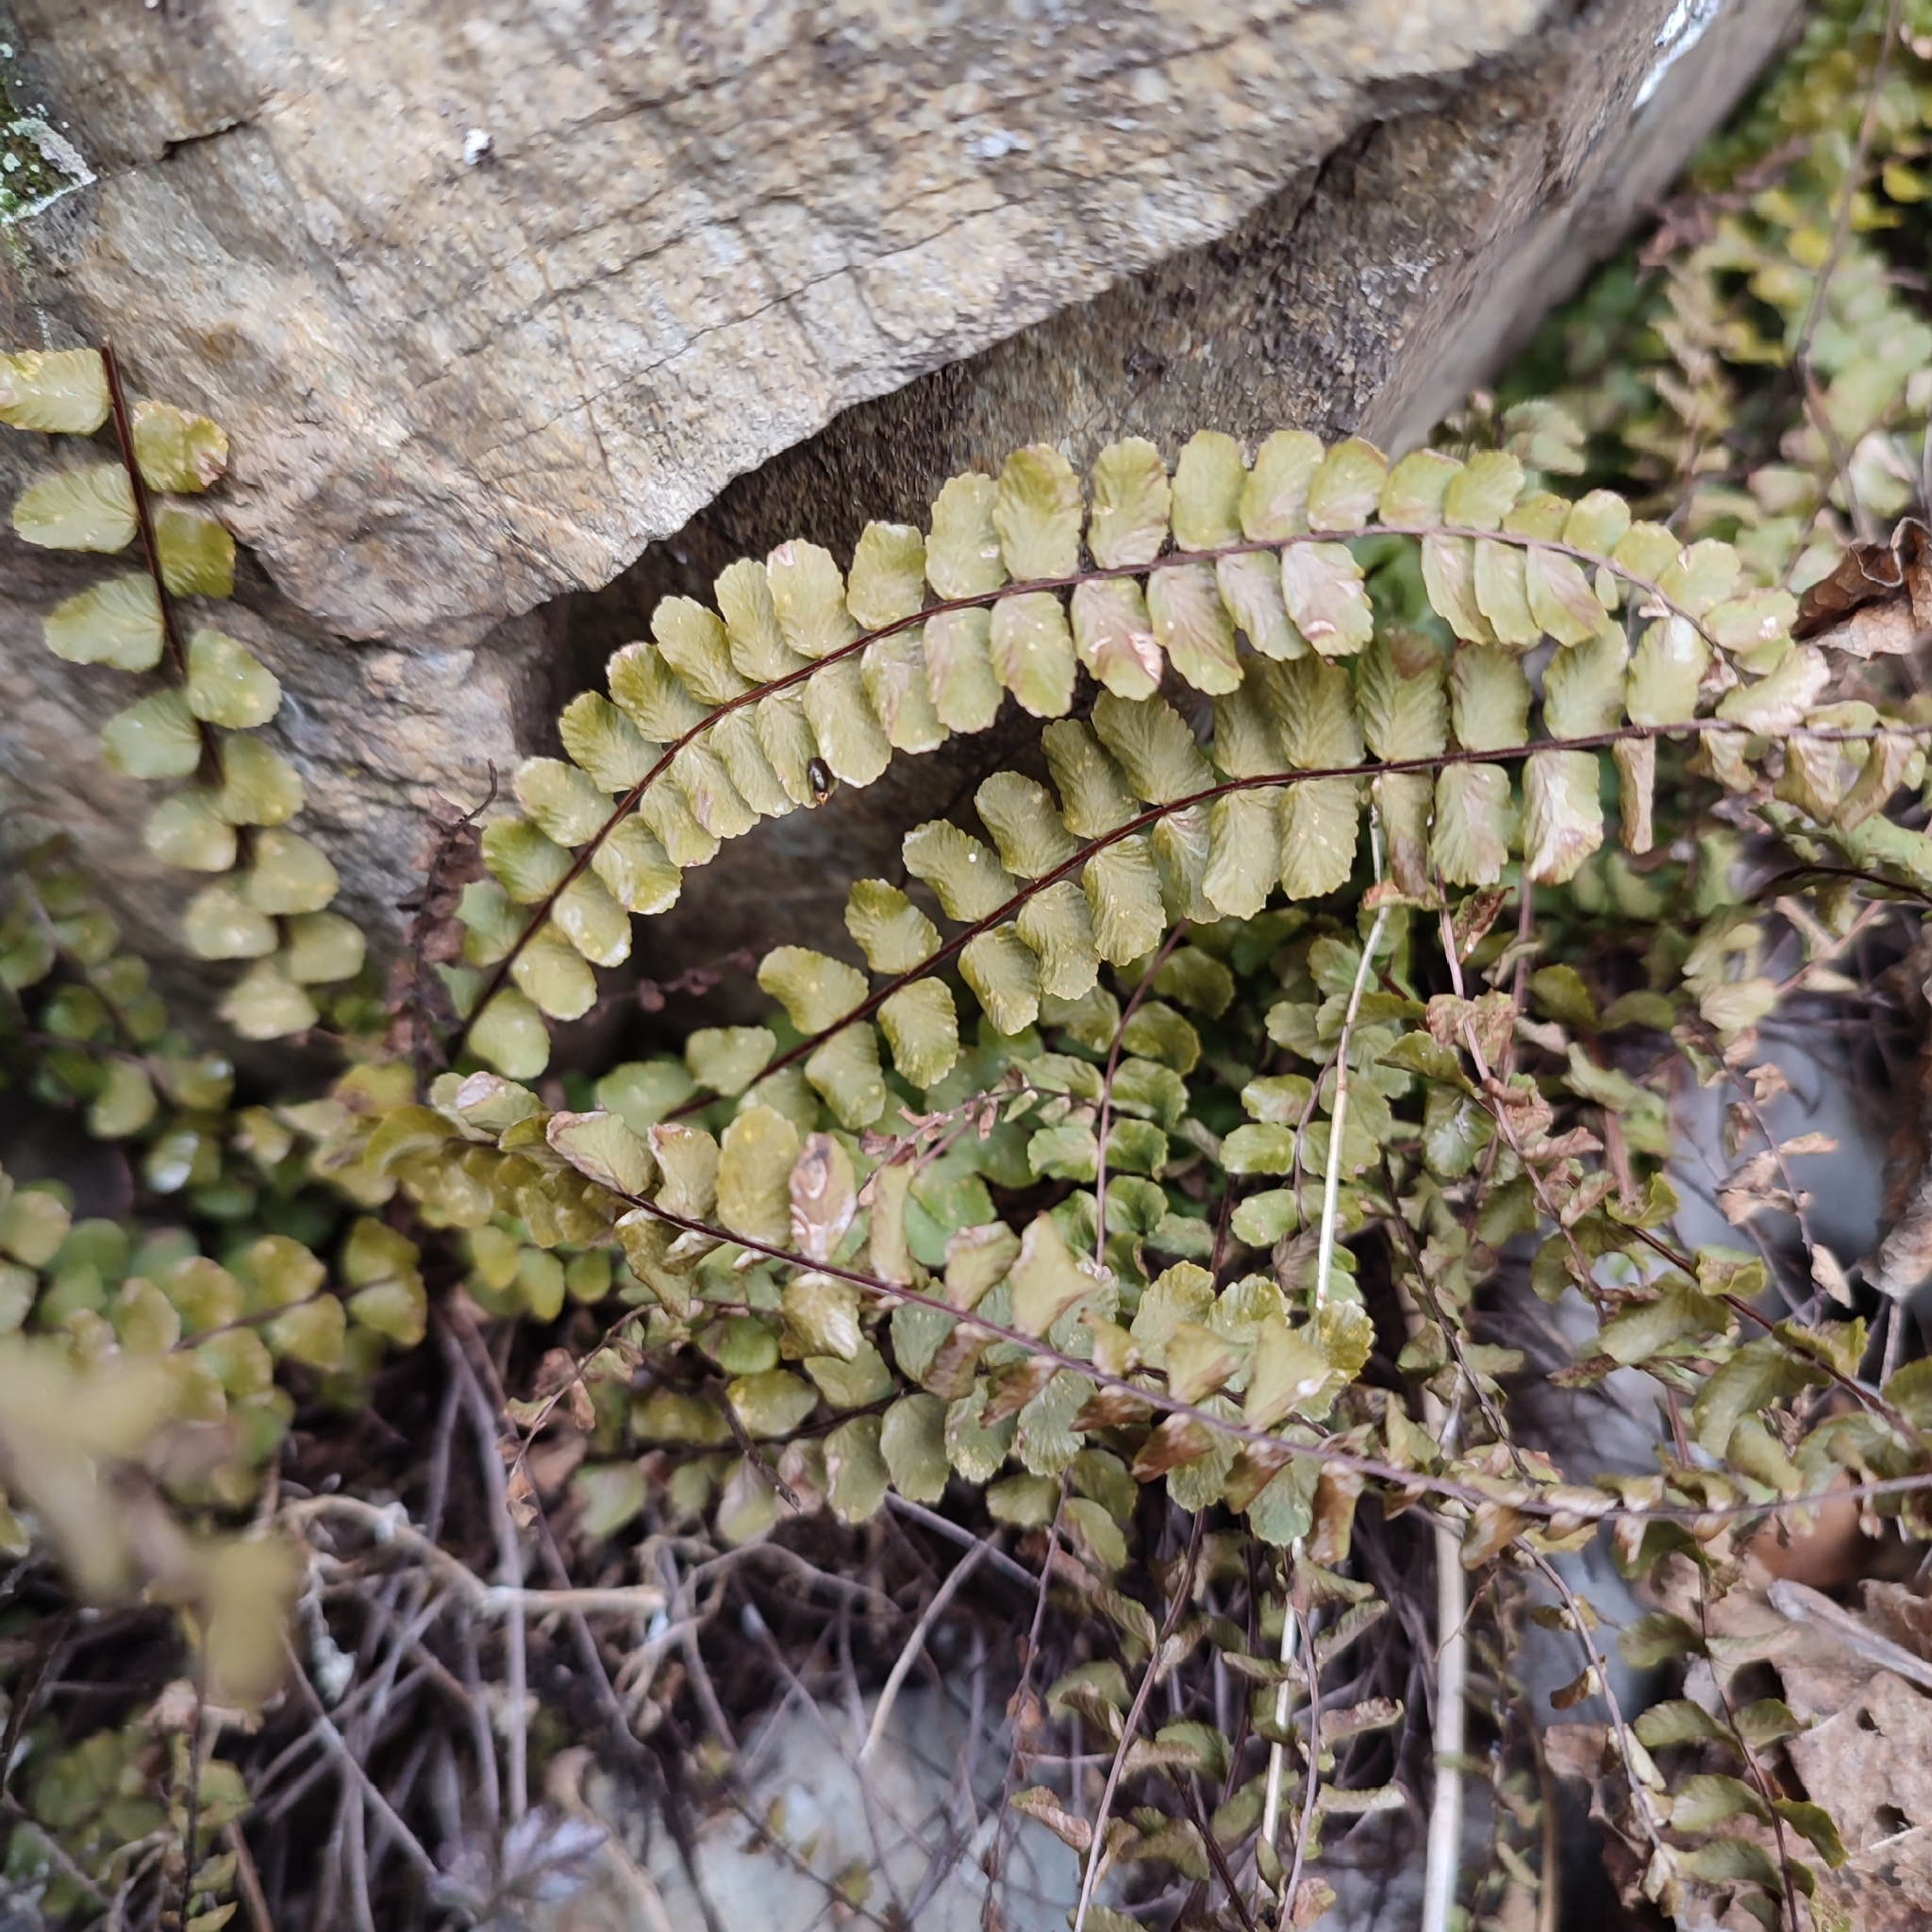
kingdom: Plantae
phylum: Tracheophyta
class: Polypodiopsida
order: Polypodiales
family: Aspleniaceae
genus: Asplenium
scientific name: Asplenium trichomanes
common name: Maidenhair spleenwort
